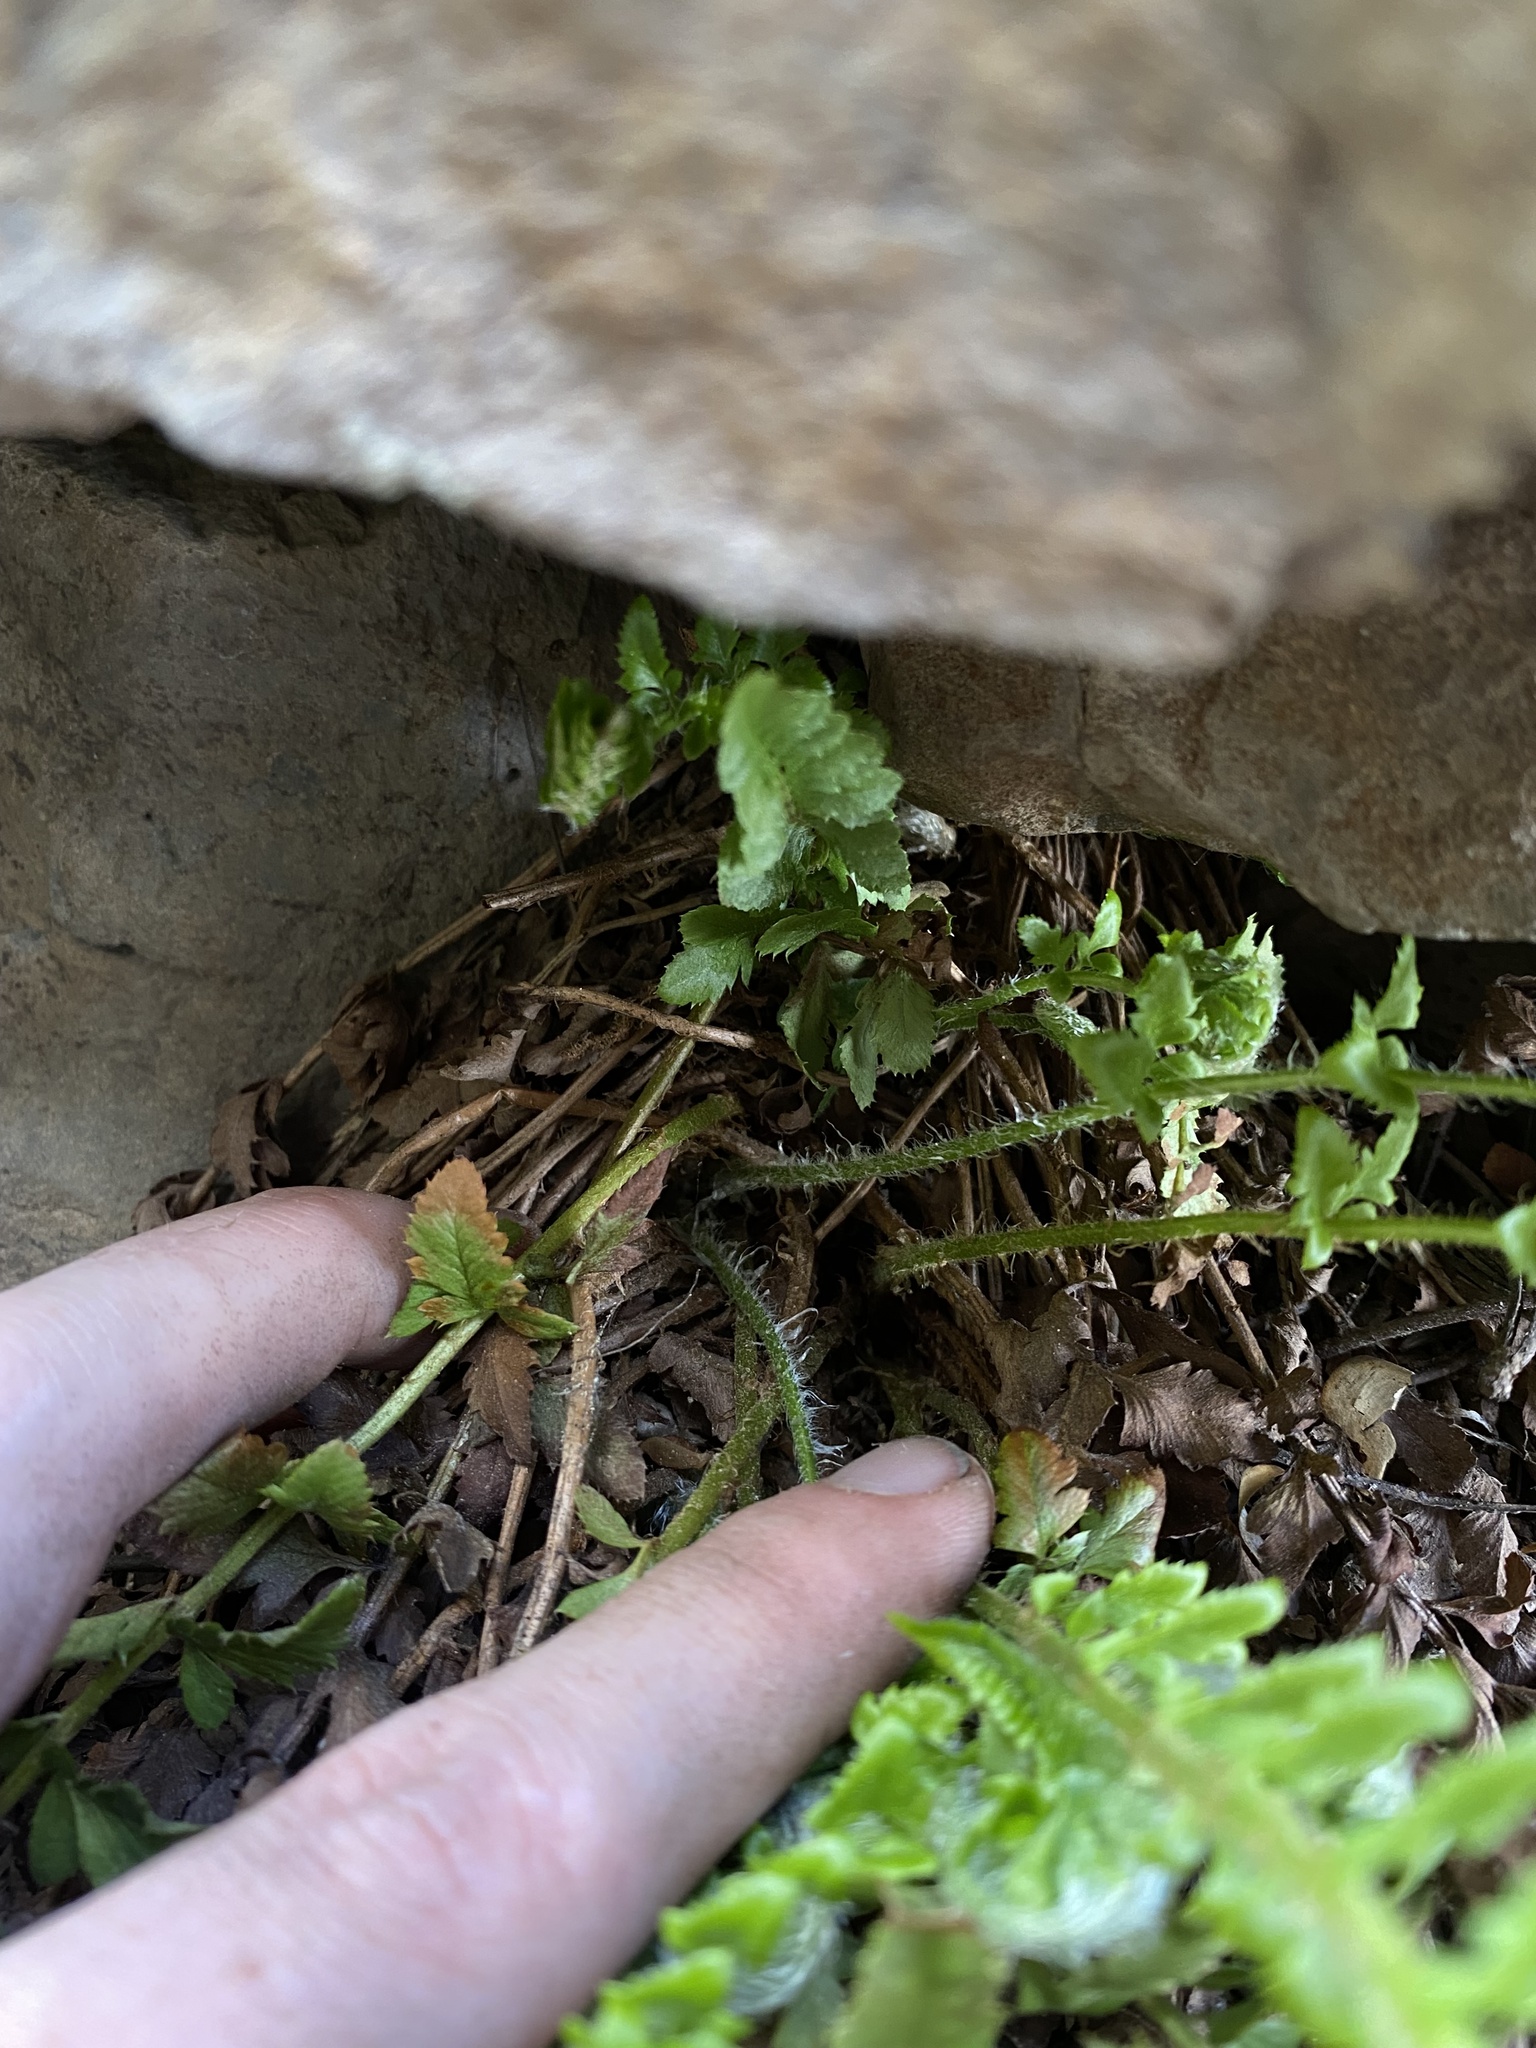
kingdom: Plantae
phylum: Tracheophyta
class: Polypodiopsida
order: Polypodiales
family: Dryopteridaceae
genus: Polystichum
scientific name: Polystichum scopulinum
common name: Eaton's shield fern
